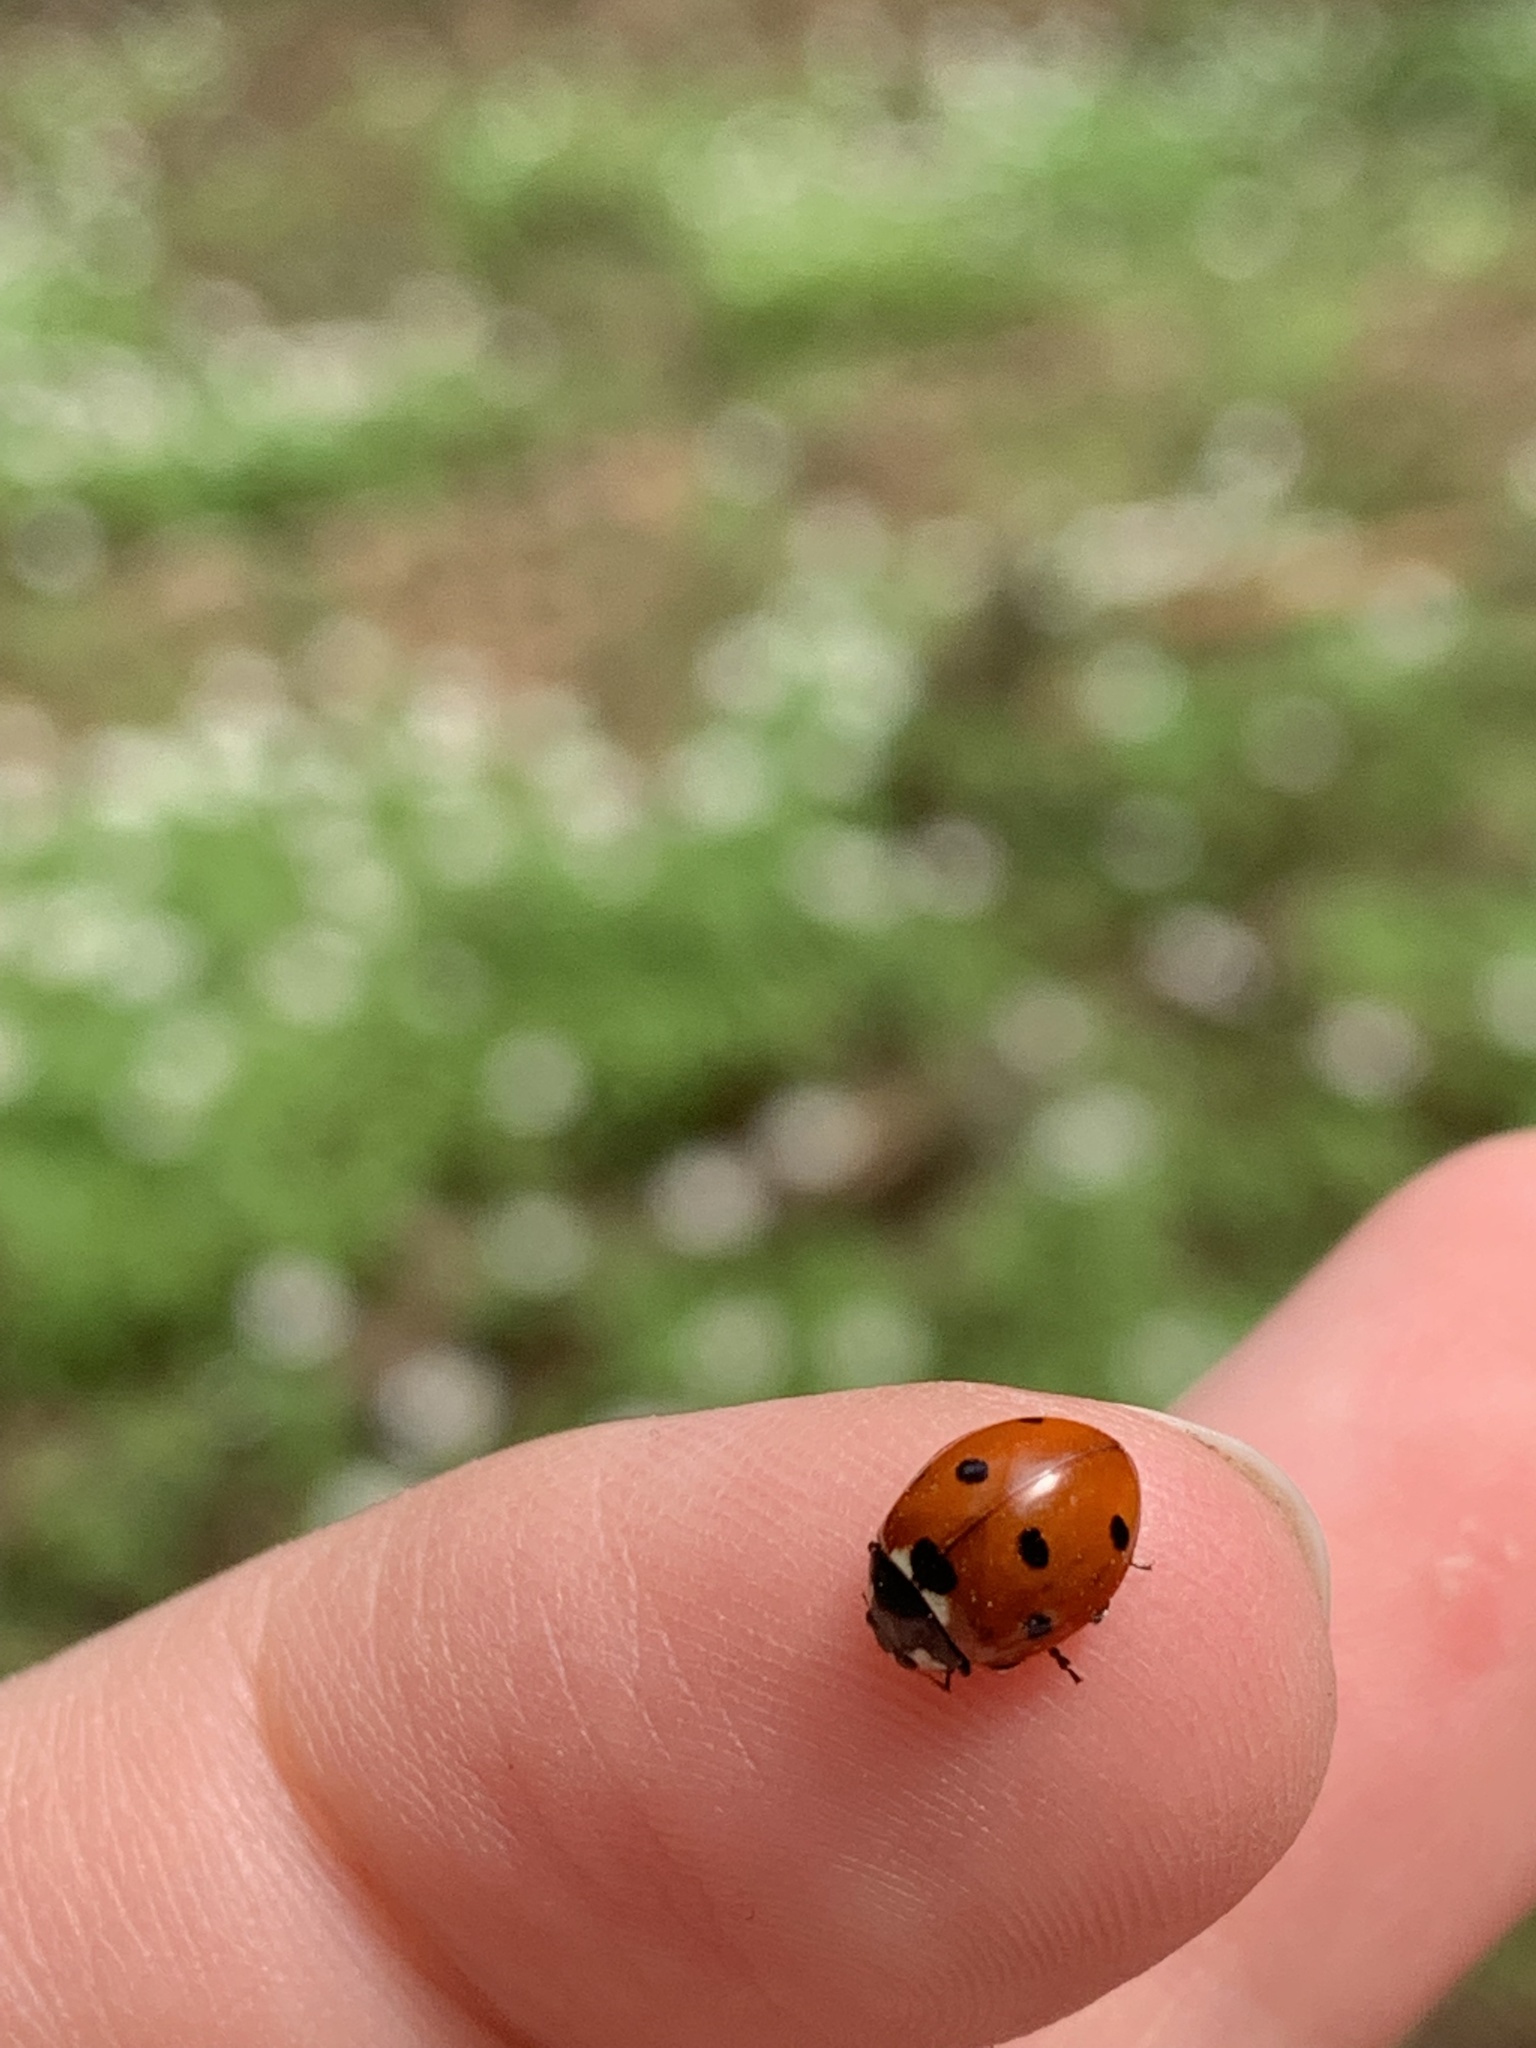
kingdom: Animalia
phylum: Arthropoda
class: Insecta
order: Coleoptera
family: Coccinellidae
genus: Coccinella
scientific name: Coccinella septempunctata
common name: Sevenspotted lady beetle
